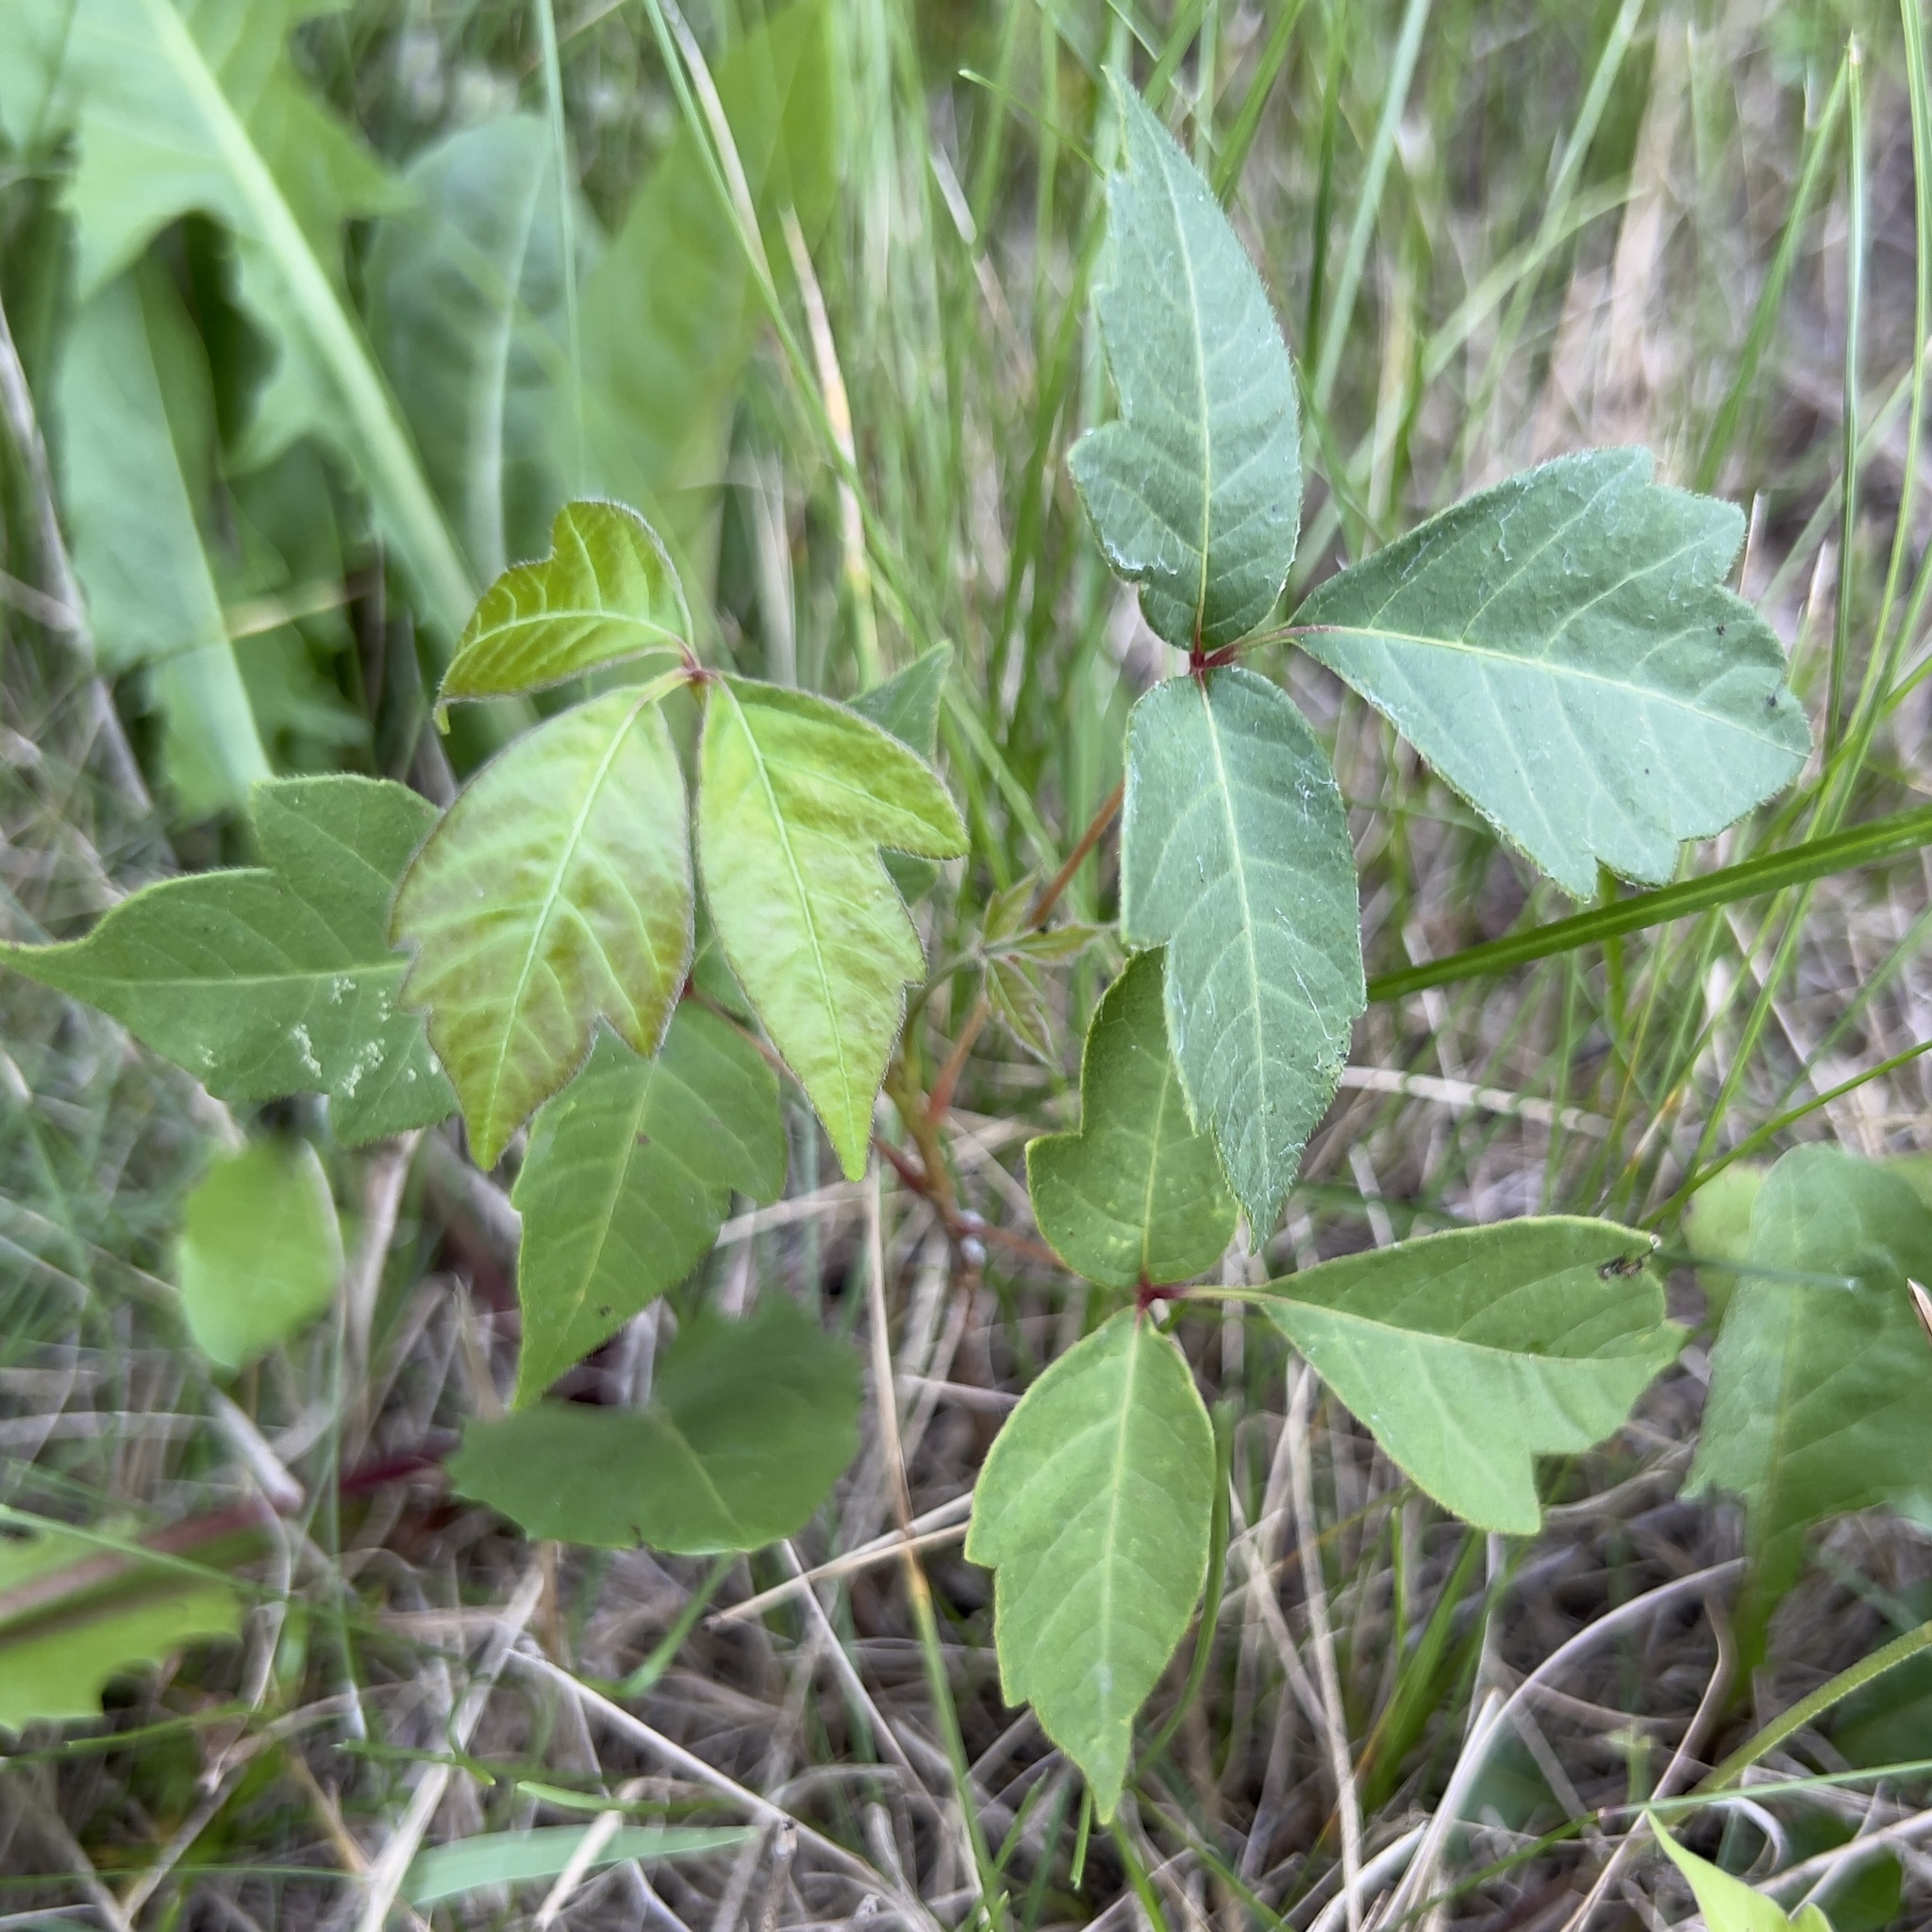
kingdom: Plantae
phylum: Tracheophyta
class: Magnoliopsida
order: Sapindales
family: Anacardiaceae
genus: Toxicodendron
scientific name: Toxicodendron radicans
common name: Poison ivy
